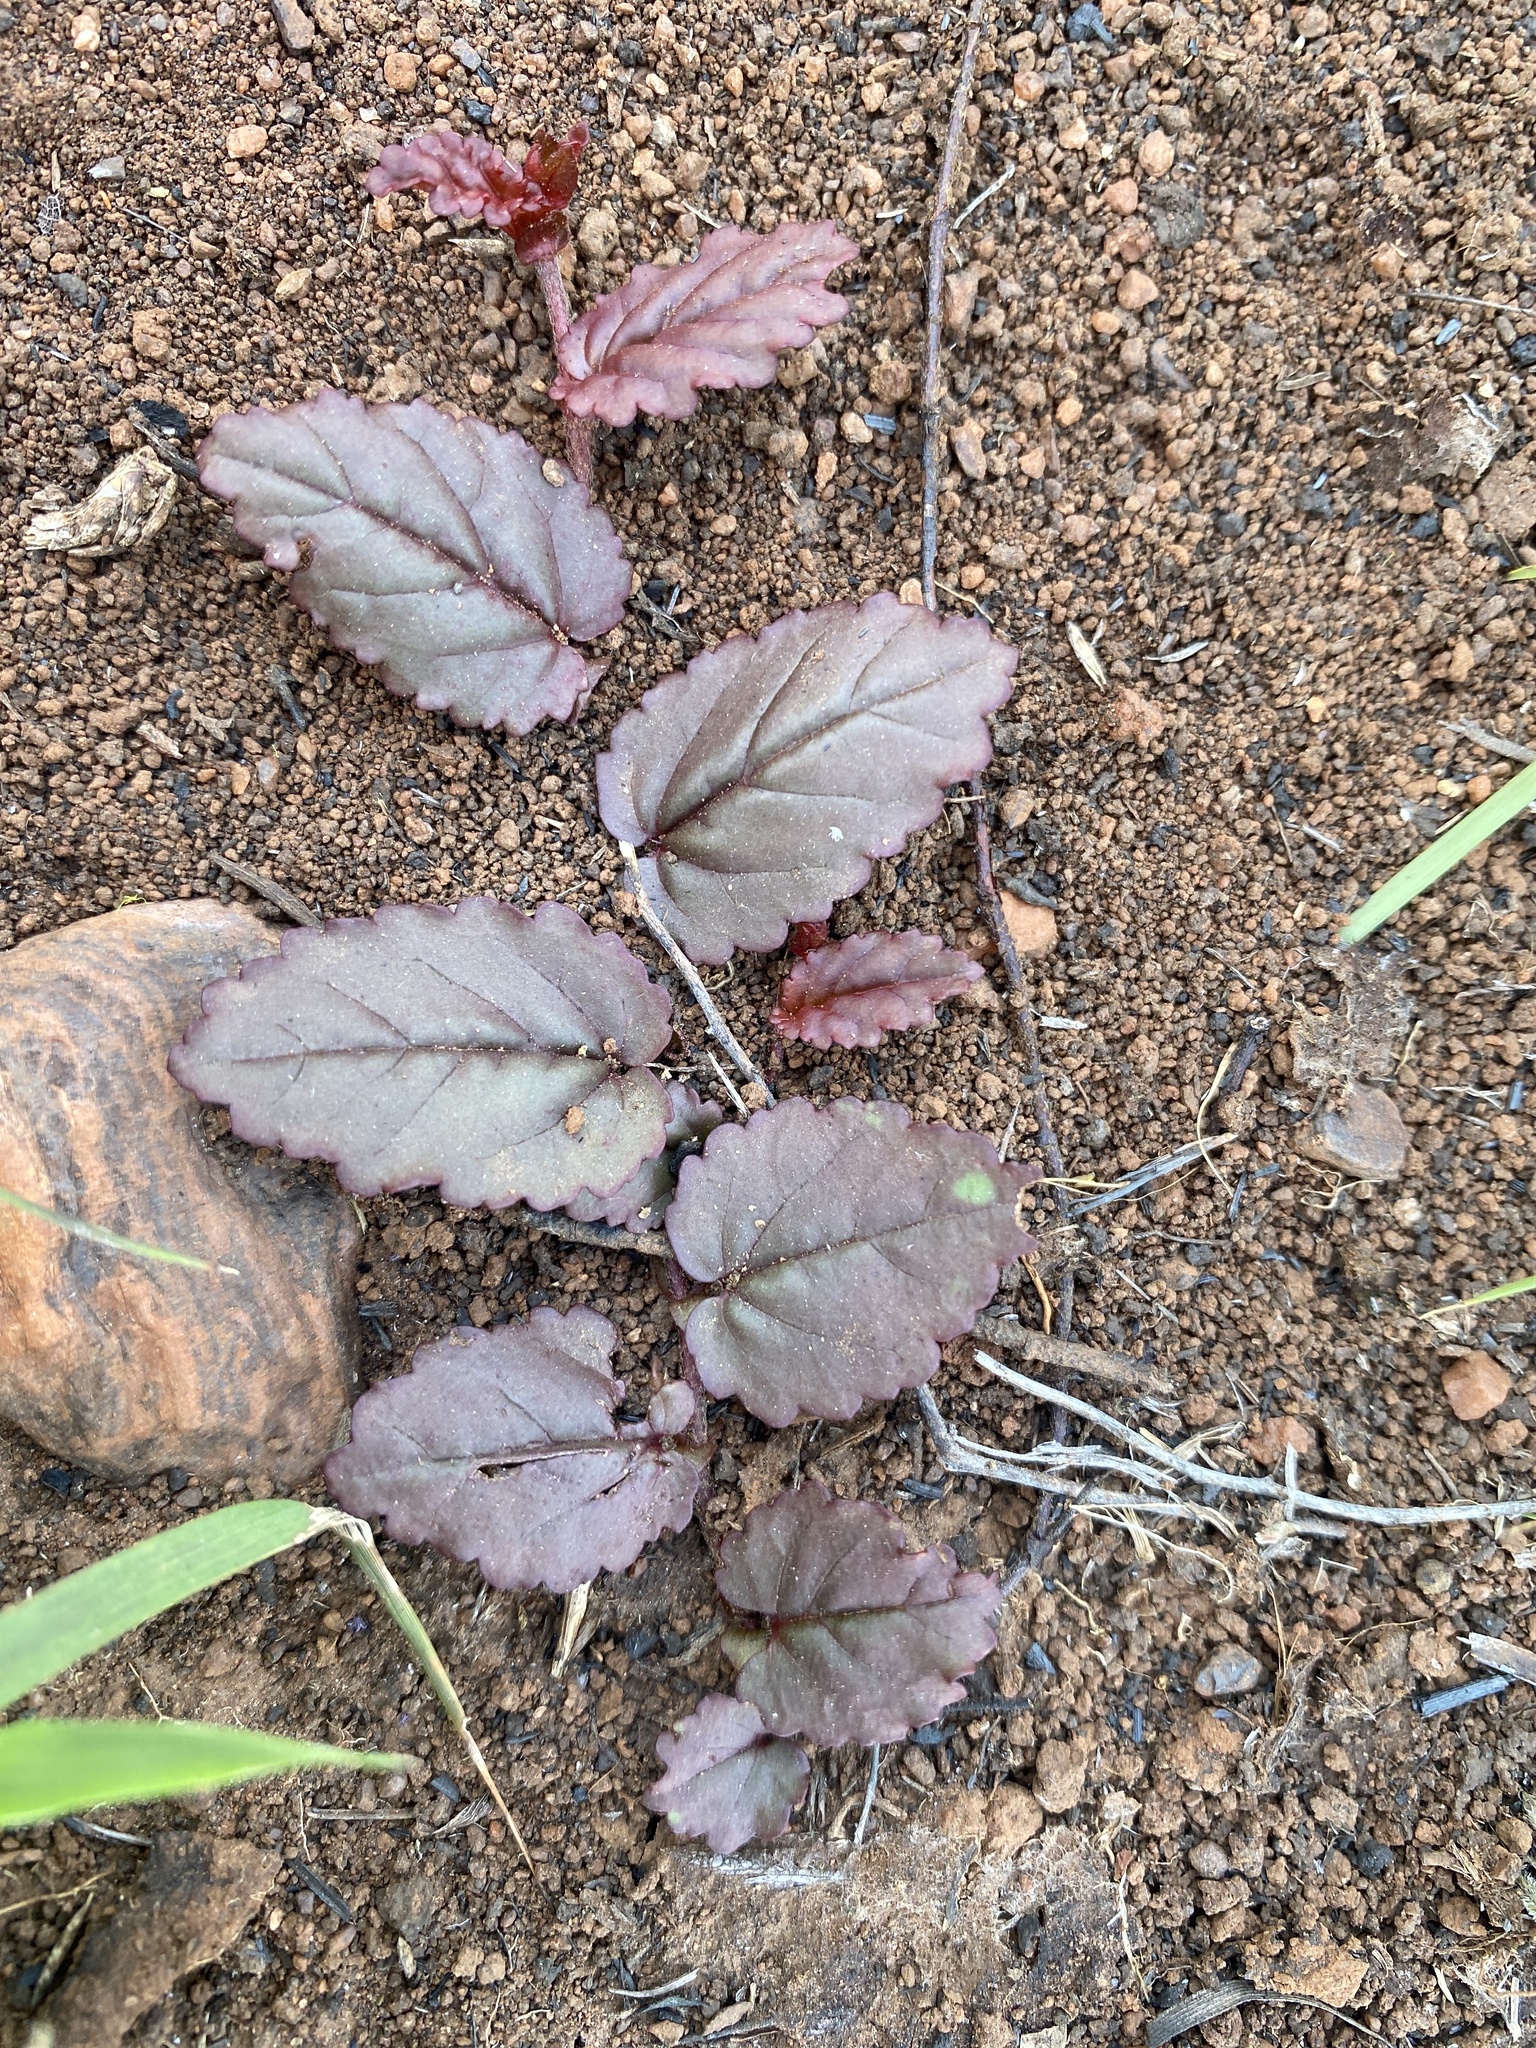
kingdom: Plantae
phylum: Tracheophyta
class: Magnoliopsida
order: Malvales
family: Malvaceae
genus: Hermannia
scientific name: Hermannia depressa
